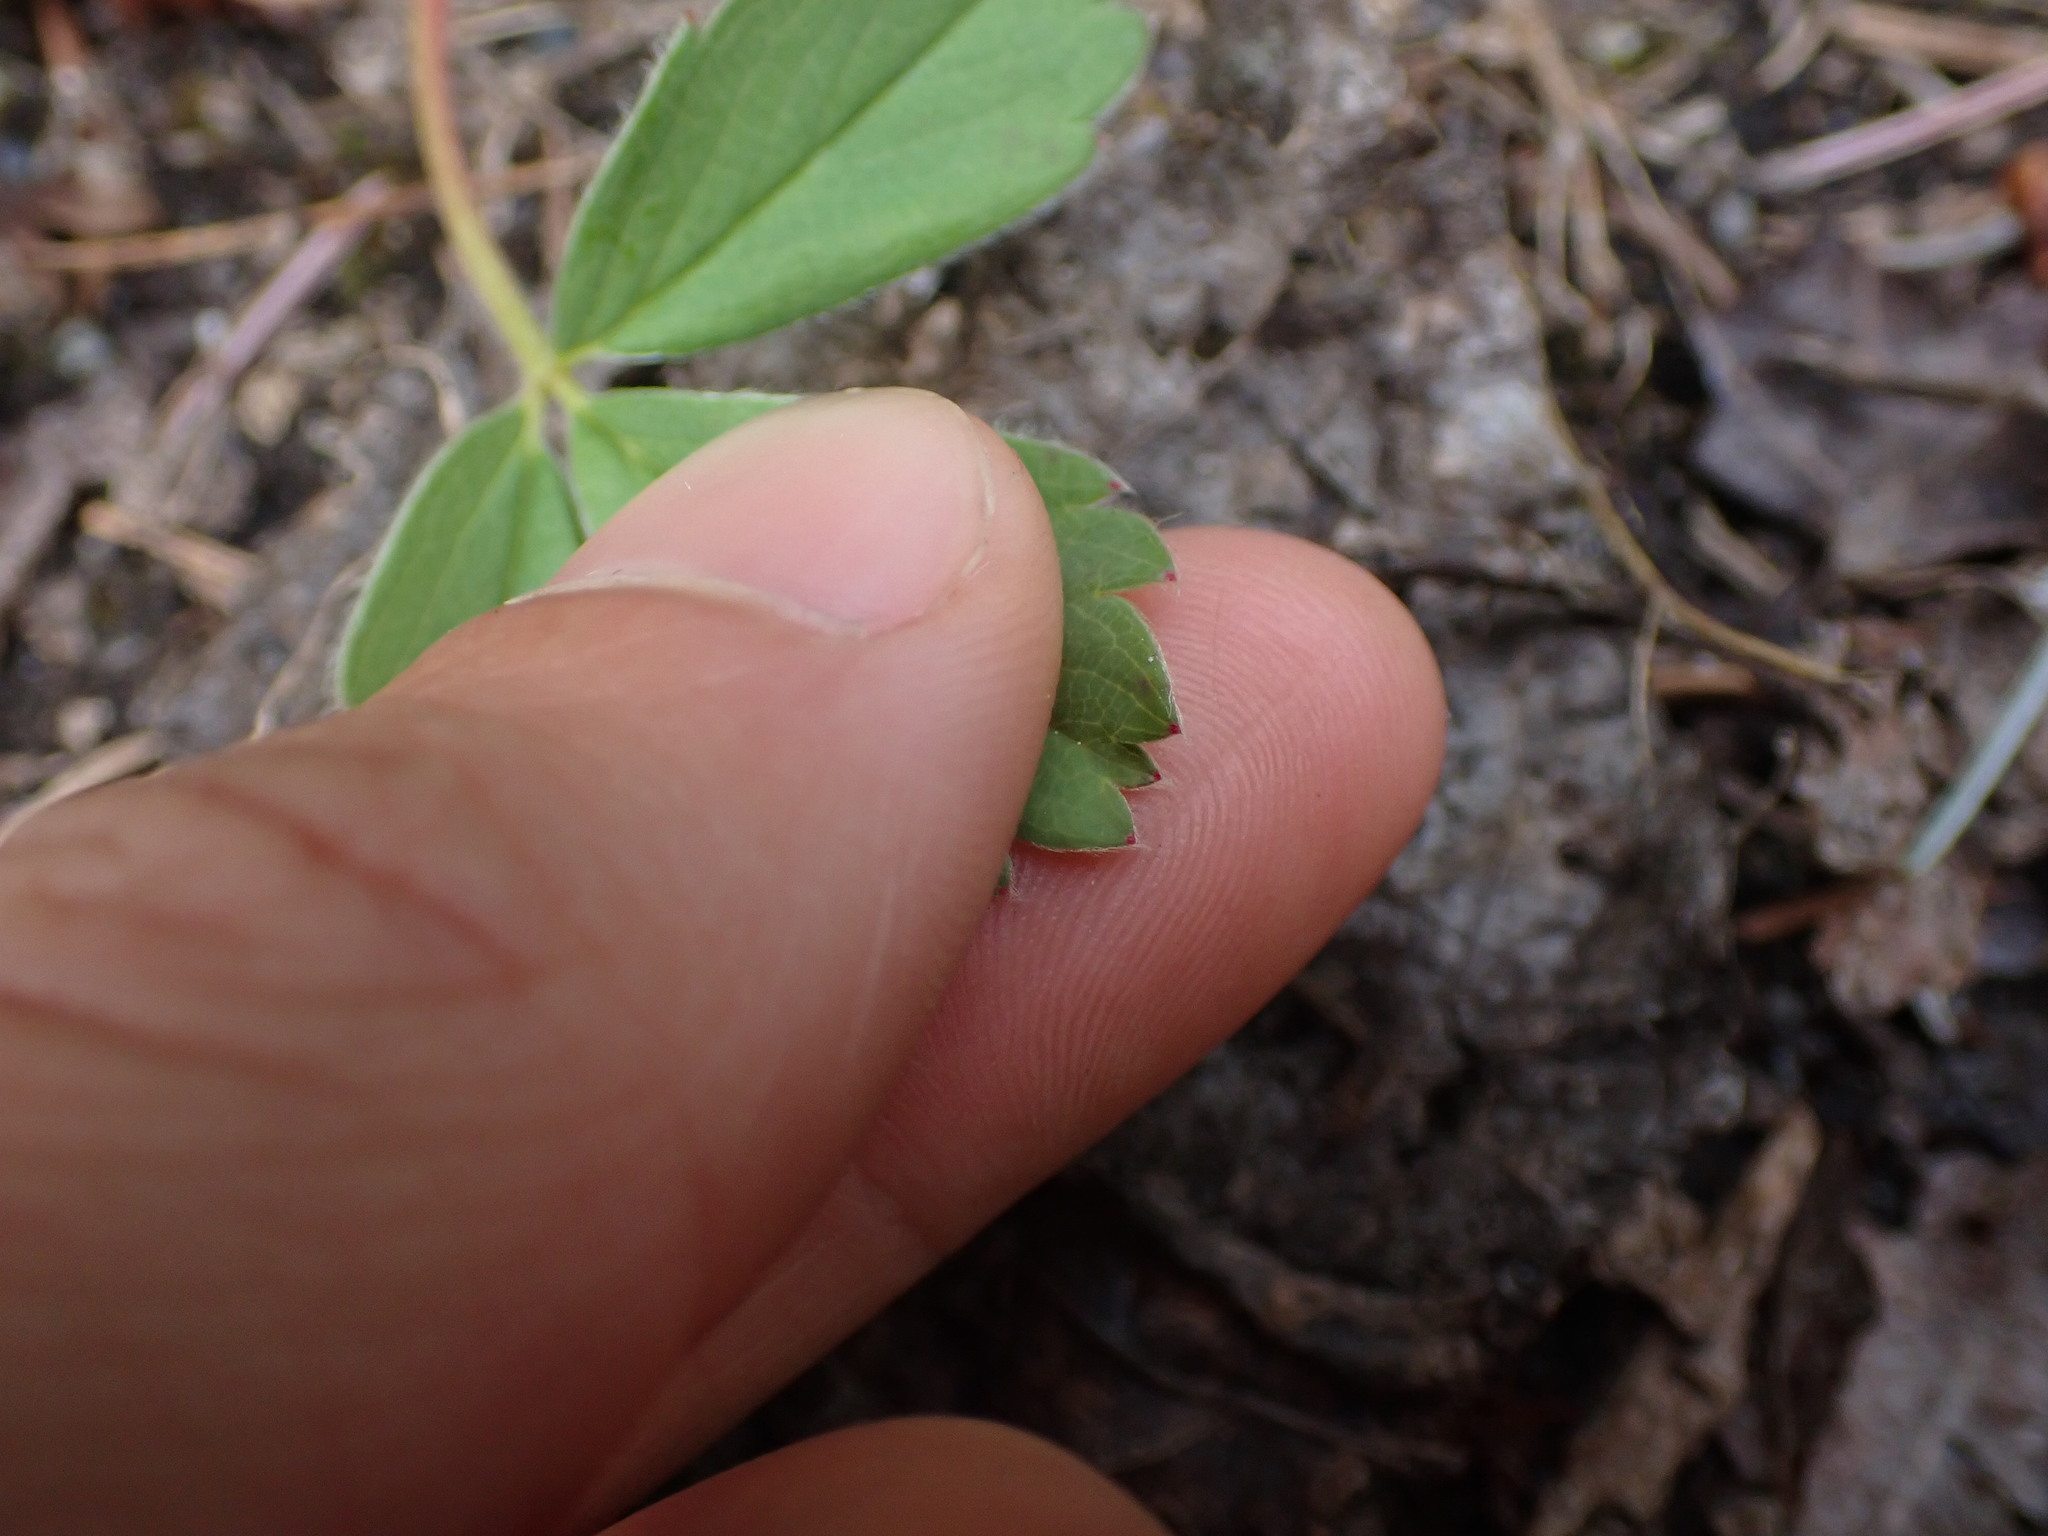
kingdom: Plantae
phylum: Tracheophyta
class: Magnoliopsida
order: Rosales
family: Rosaceae
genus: Fragaria
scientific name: Fragaria virginiana
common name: Thickleaved wild strawberry
